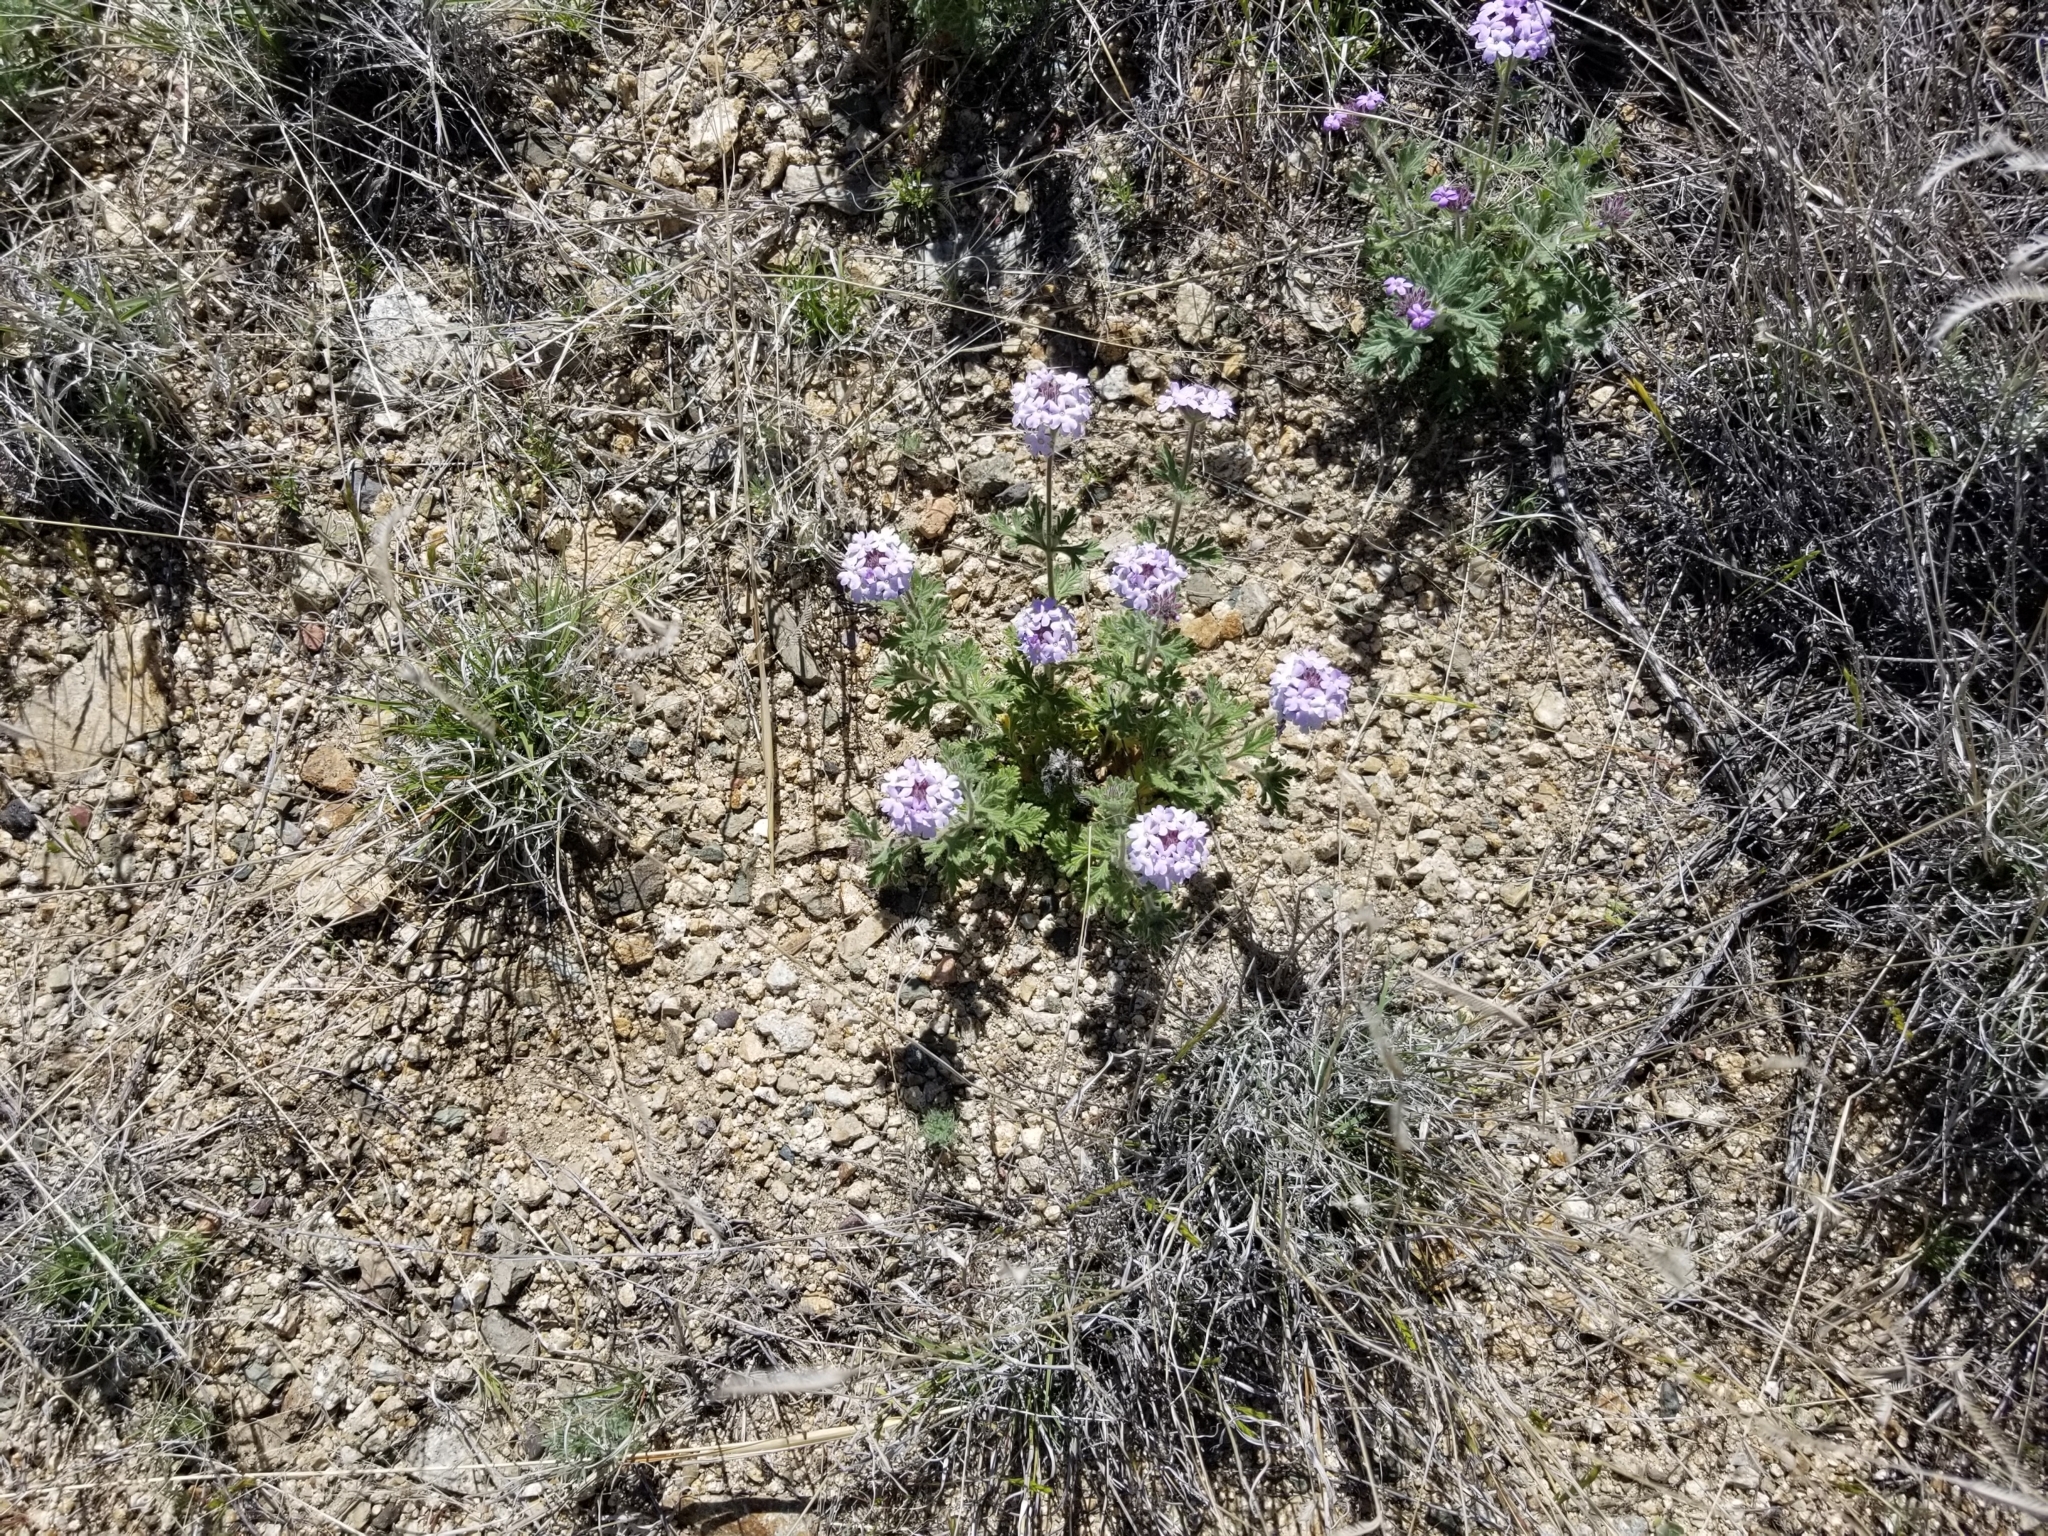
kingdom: Plantae
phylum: Tracheophyta
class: Magnoliopsida
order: Lamiales
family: Verbenaceae
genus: Verbena
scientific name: Verbena gooddingii
